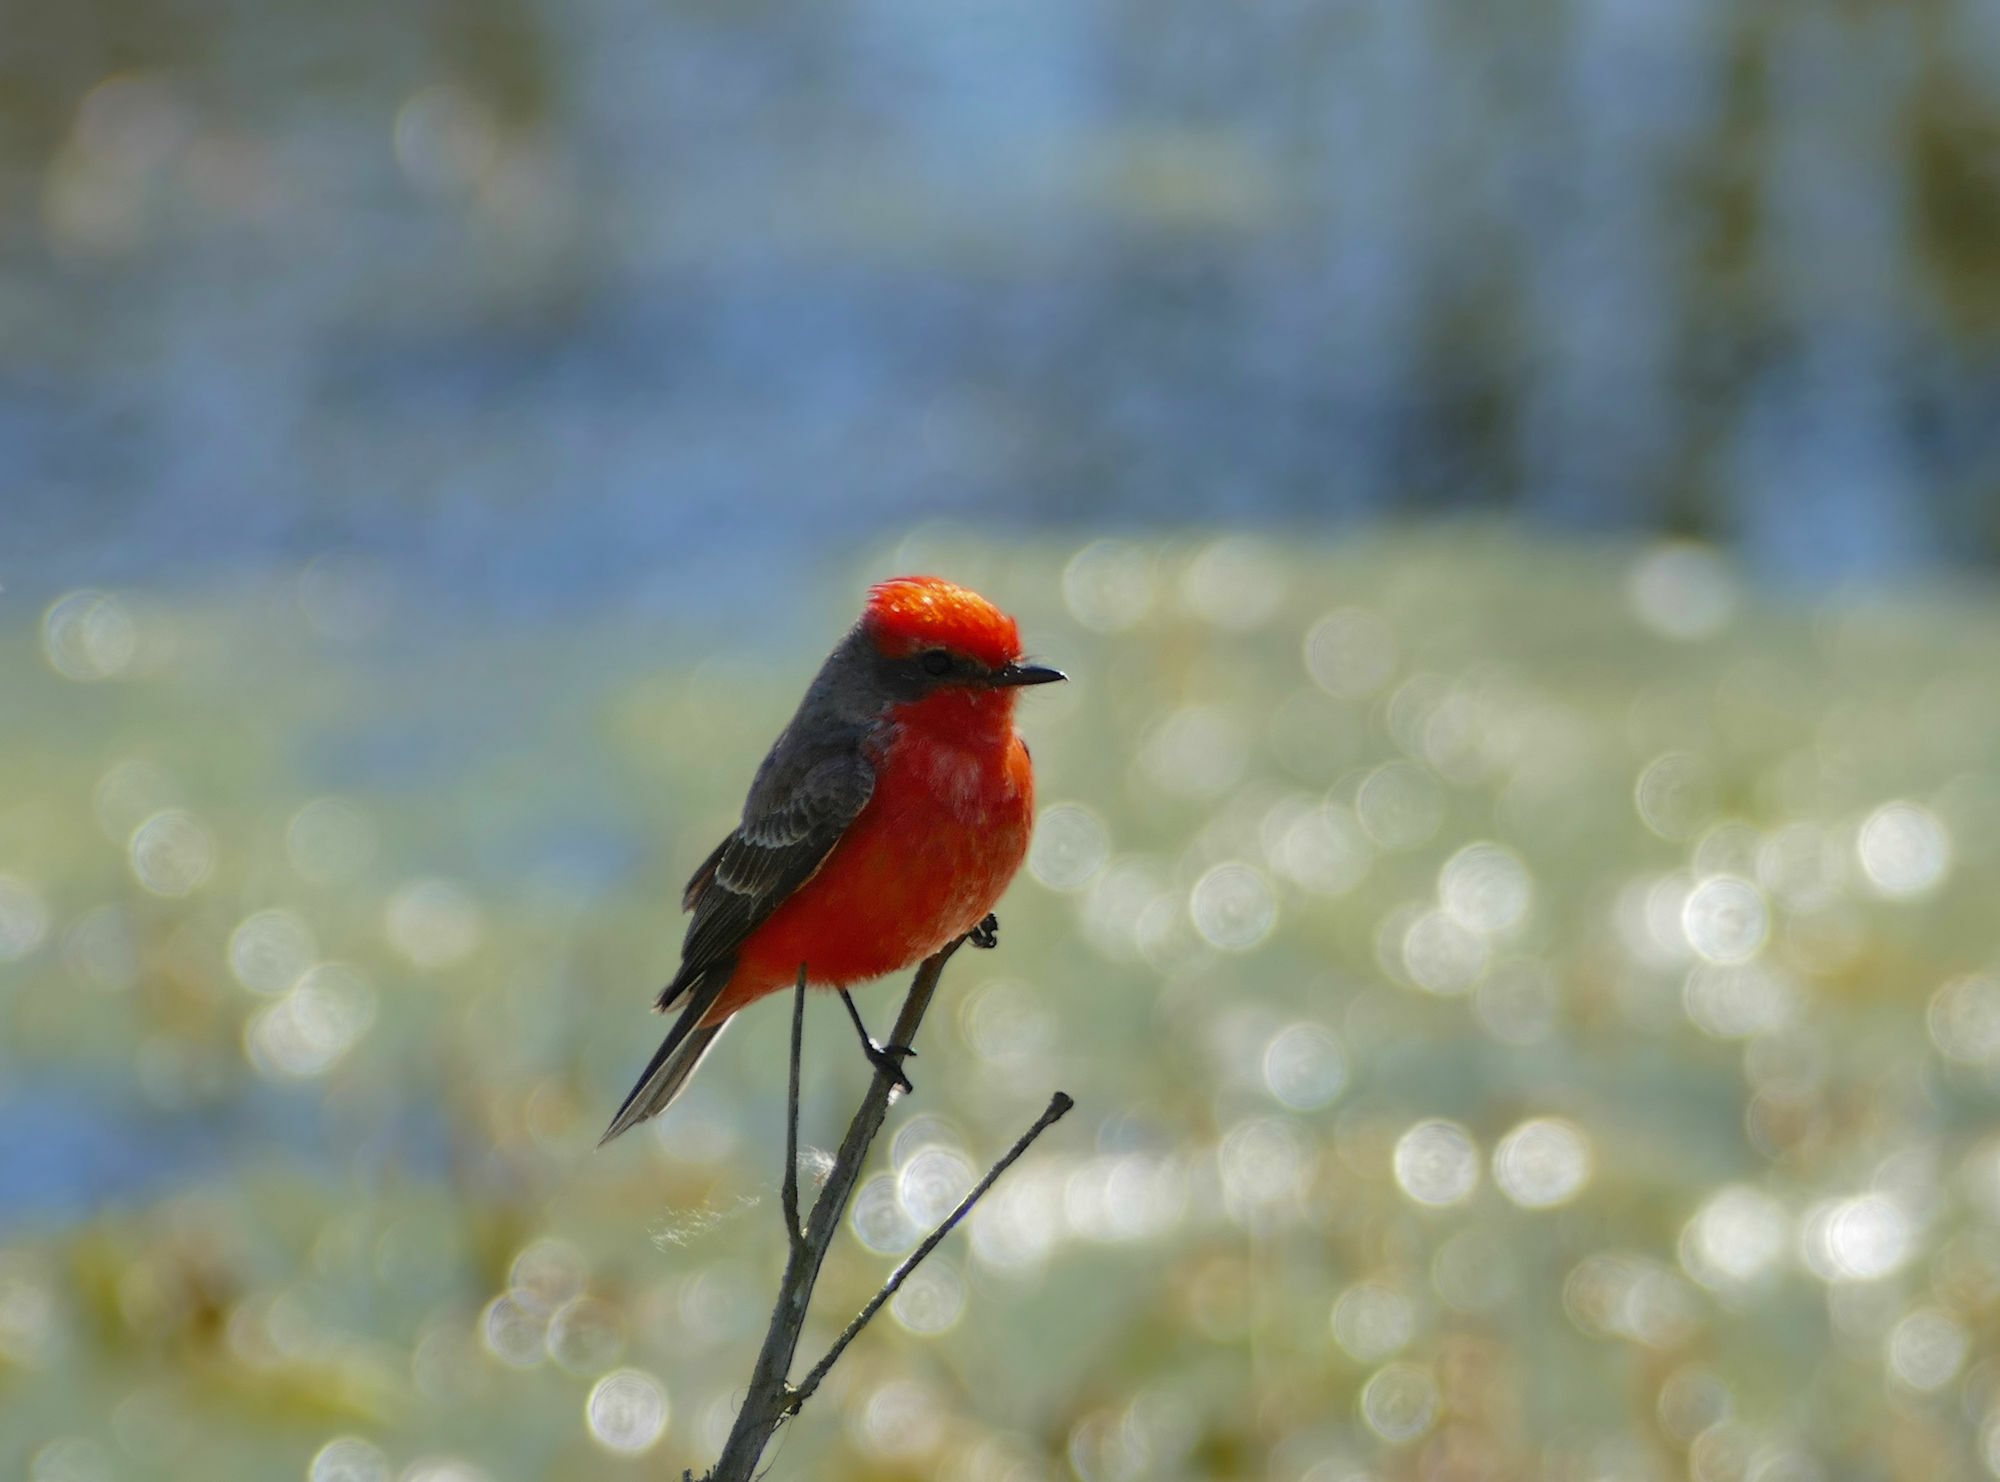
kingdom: Animalia
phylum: Chordata
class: Aves
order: Passeriformes
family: Tyrannidae
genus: Pyrocephalus
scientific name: Pyrocephalus rubinus
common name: Vermilion flycatcher
